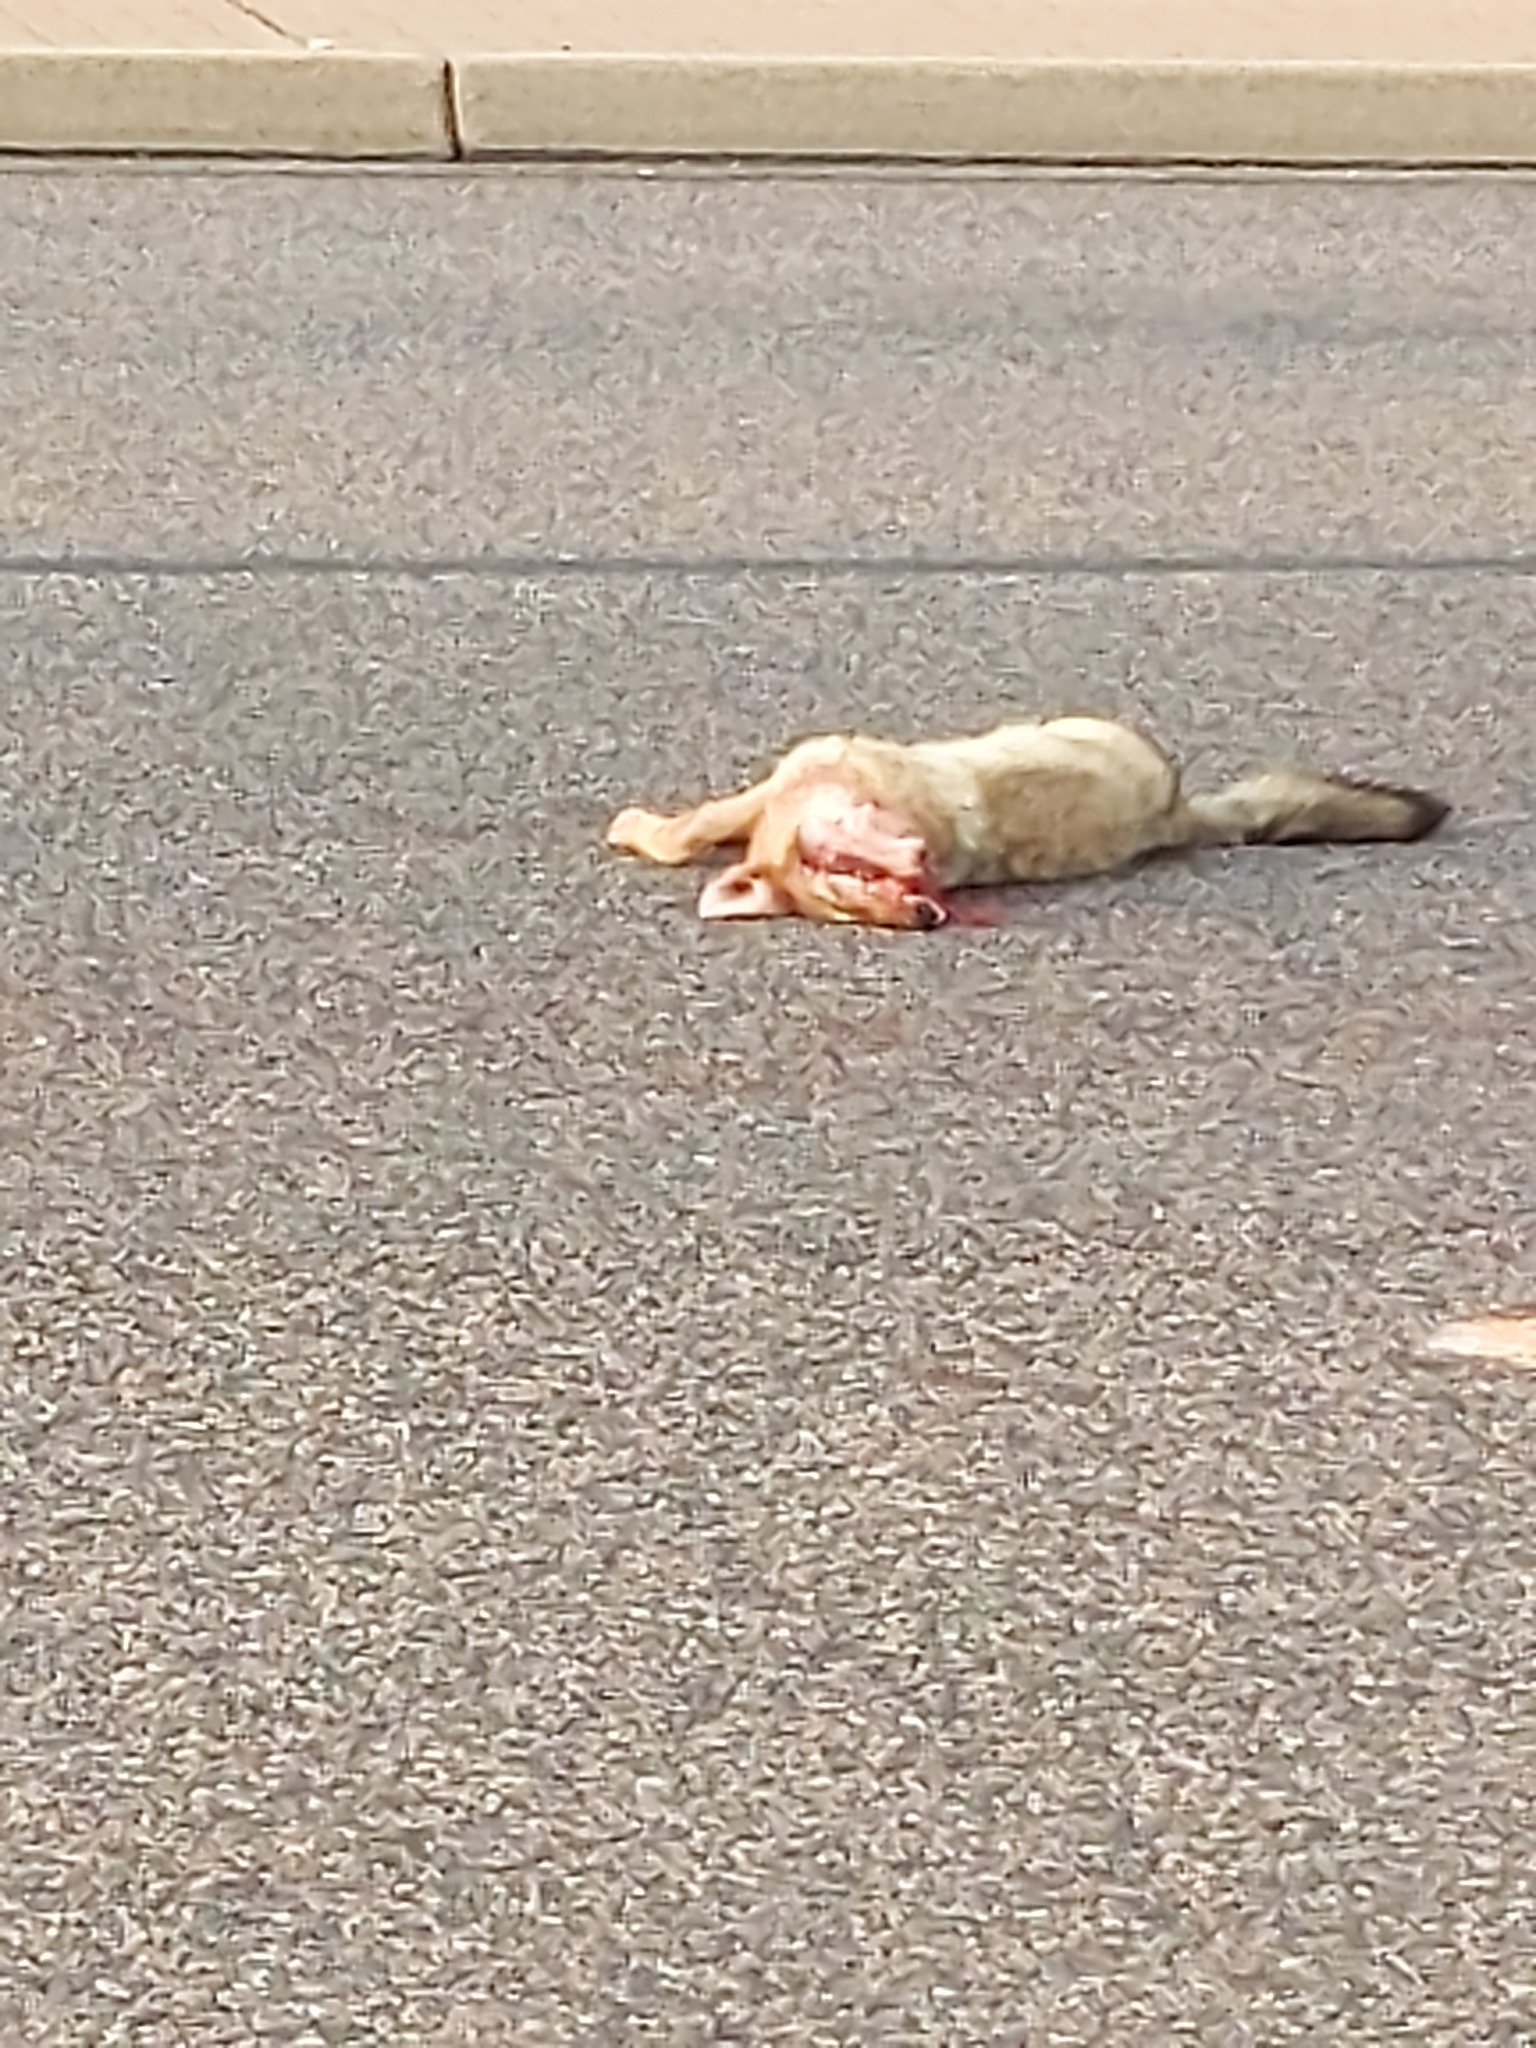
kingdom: Animalia
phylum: Chordata
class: Mammalia
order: Carnivora
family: Canidae
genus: Canis
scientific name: Canis latrans
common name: Coyote
